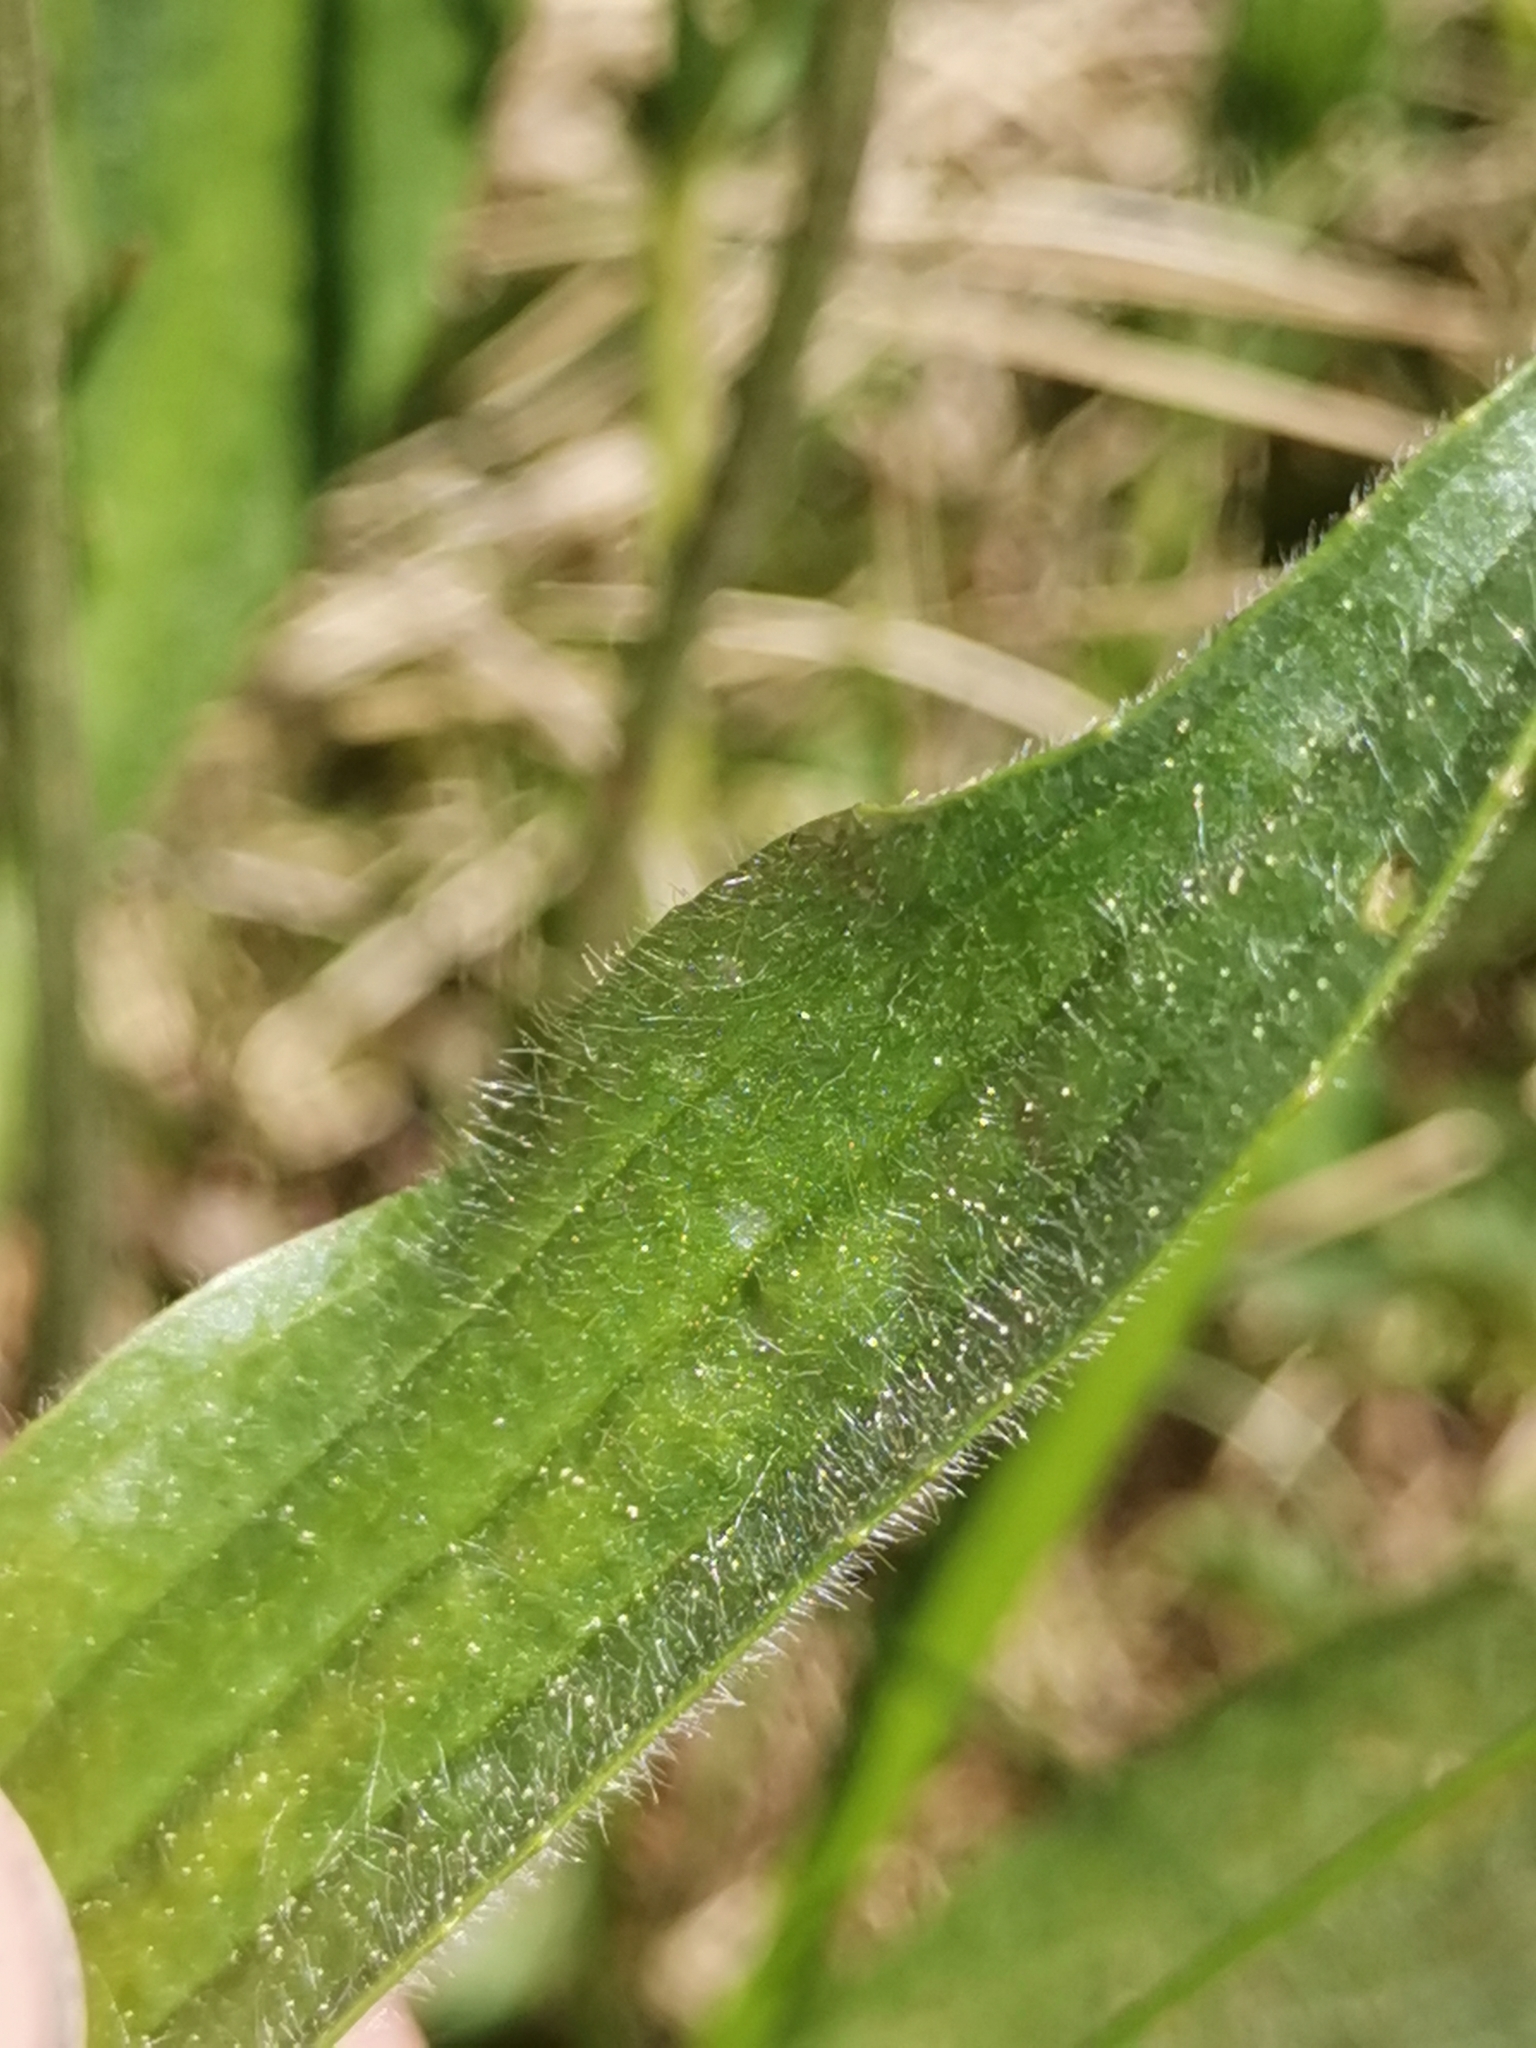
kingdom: Plantae
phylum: Tracheophyta
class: Magnoliopsida
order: Lamiales
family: Plantaginaceae
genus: Plantago
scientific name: Plantago lanceolata
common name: Ribwort plantain
